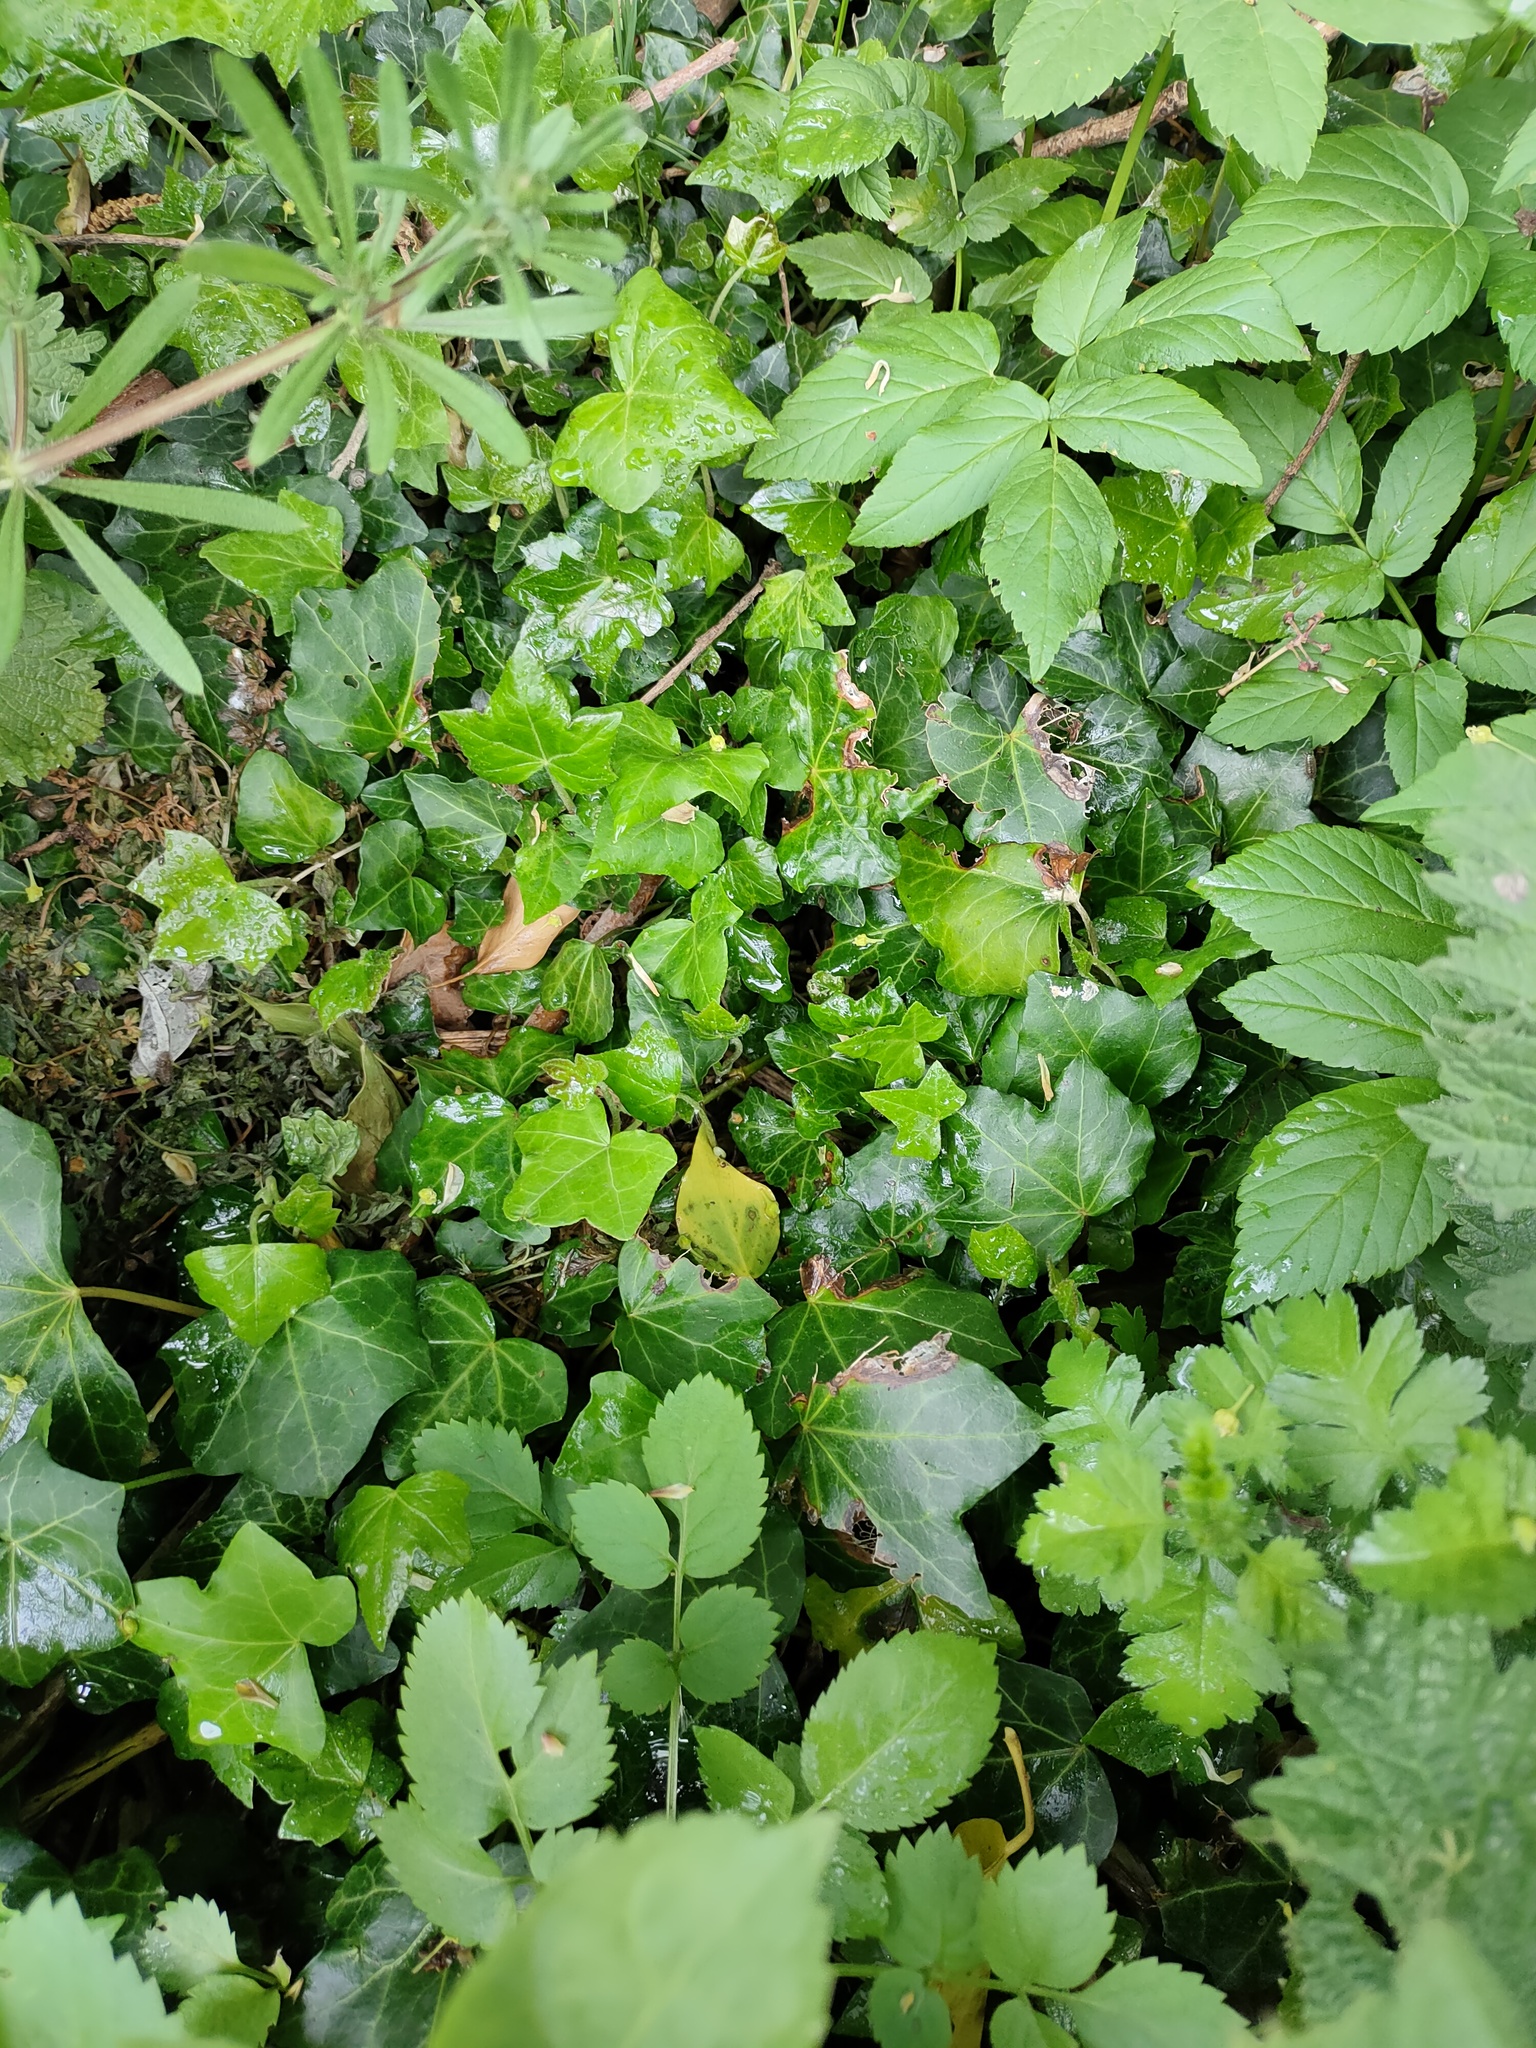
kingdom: Plantae
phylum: Tracheophyta
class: Magnoliopsida
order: Apiales
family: Araliaceae
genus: Hedera
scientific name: Hedera helix
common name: Ivy
